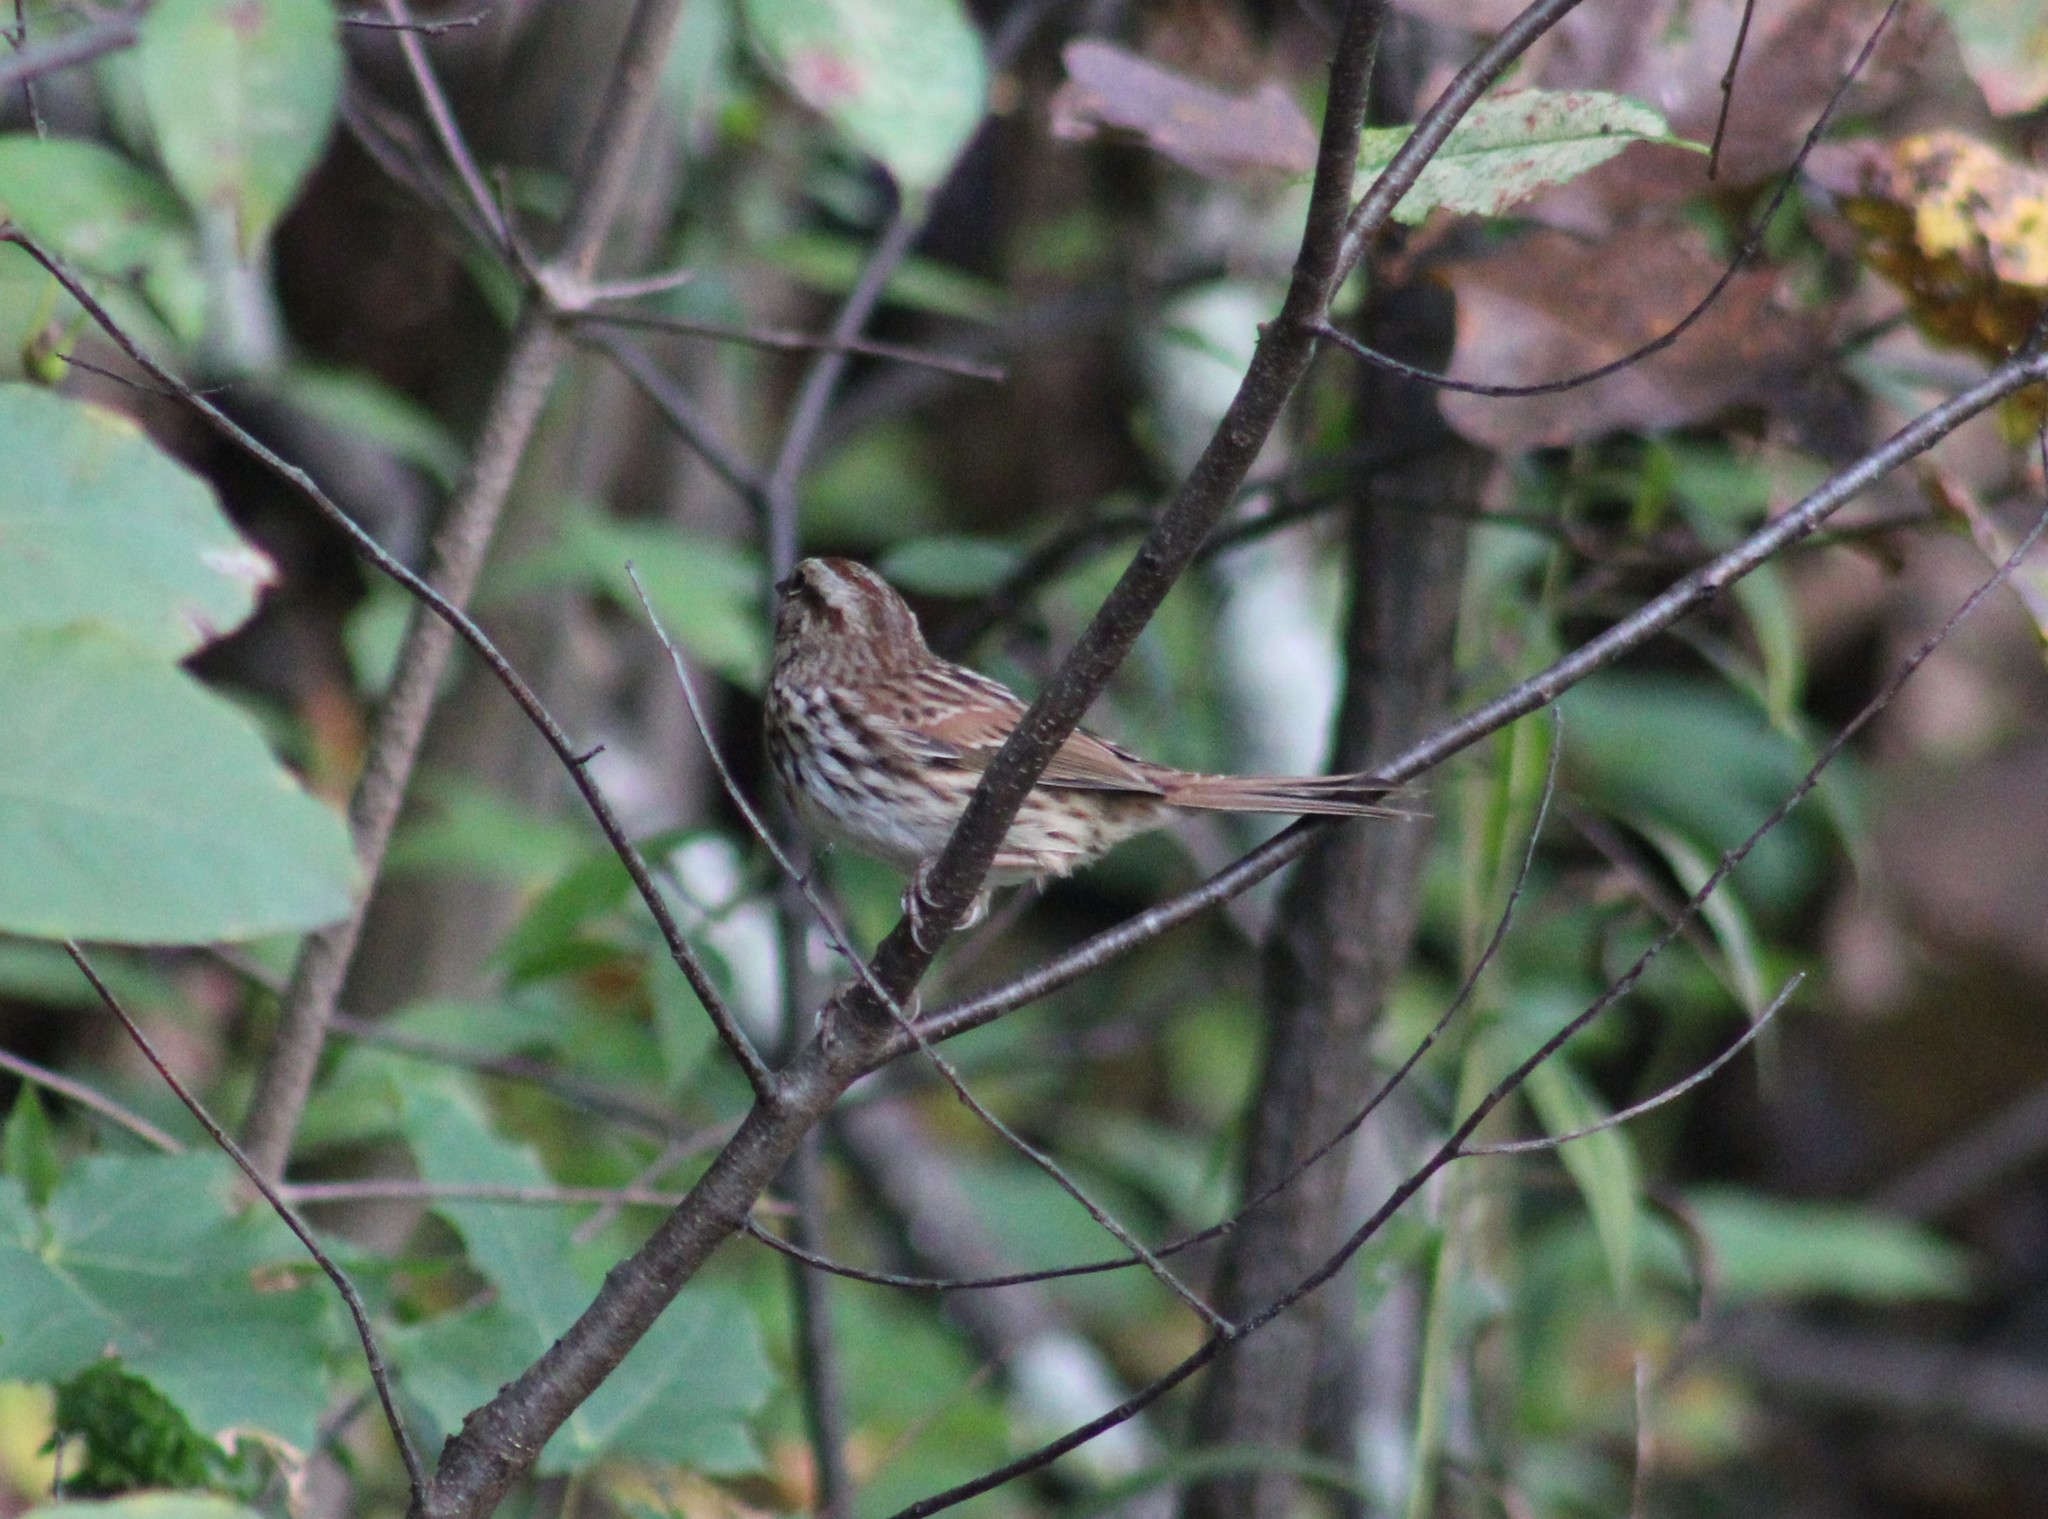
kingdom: Animalia
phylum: Chordata
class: Aves
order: Passeriformes
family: Passerellidae
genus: Melospiza
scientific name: Melospiza melodia
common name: Song sparrow
